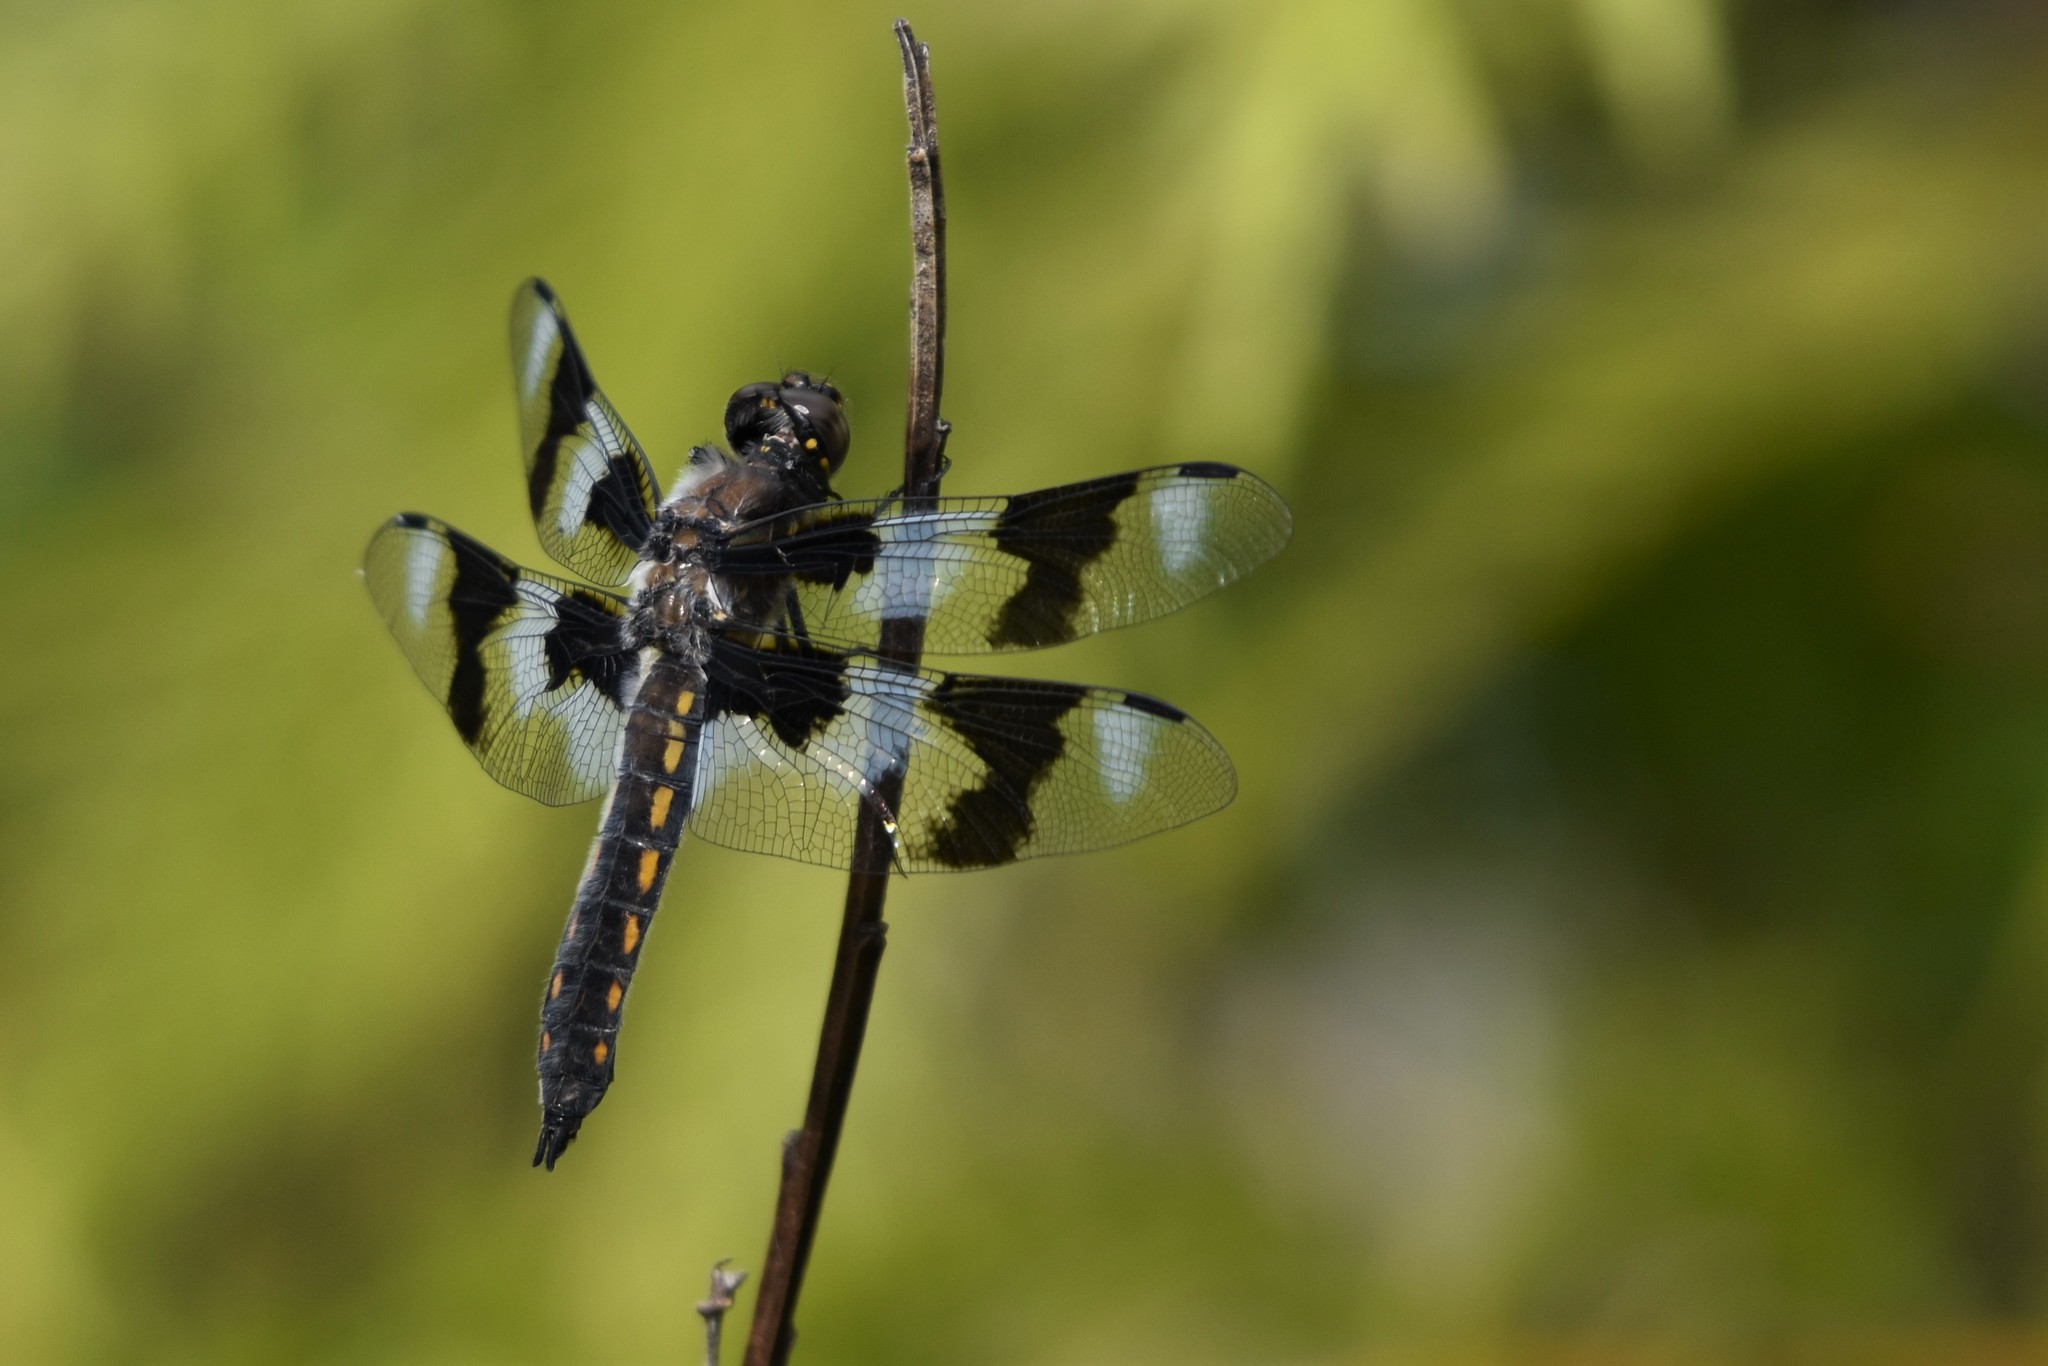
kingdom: Animalia
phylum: Arthropoda
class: Insecta
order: Odonata
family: Libellulidae
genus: Libellula
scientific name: Libellula forensis
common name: Eight-spotted skimmer
